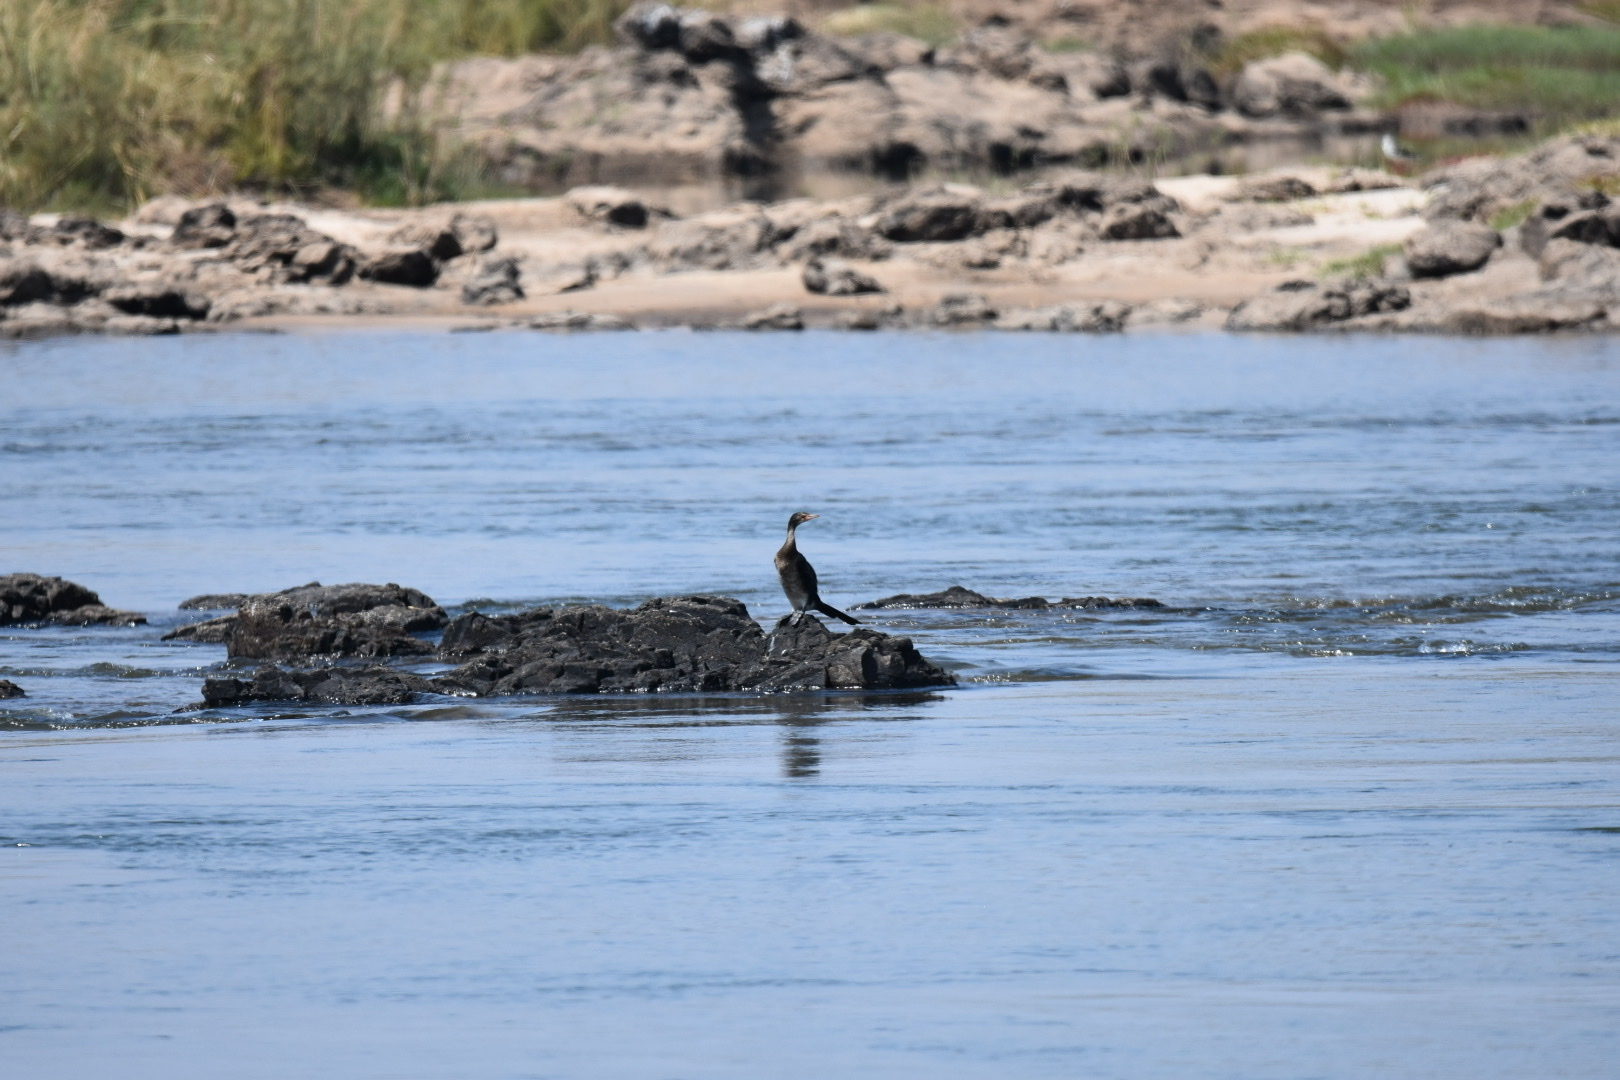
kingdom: Animalia
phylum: Chordata
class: Aves
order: Suliformes
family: Phalacrocoracidae
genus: Microcarbo
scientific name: Microcarbo africanus
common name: Long-tailed cormorant
